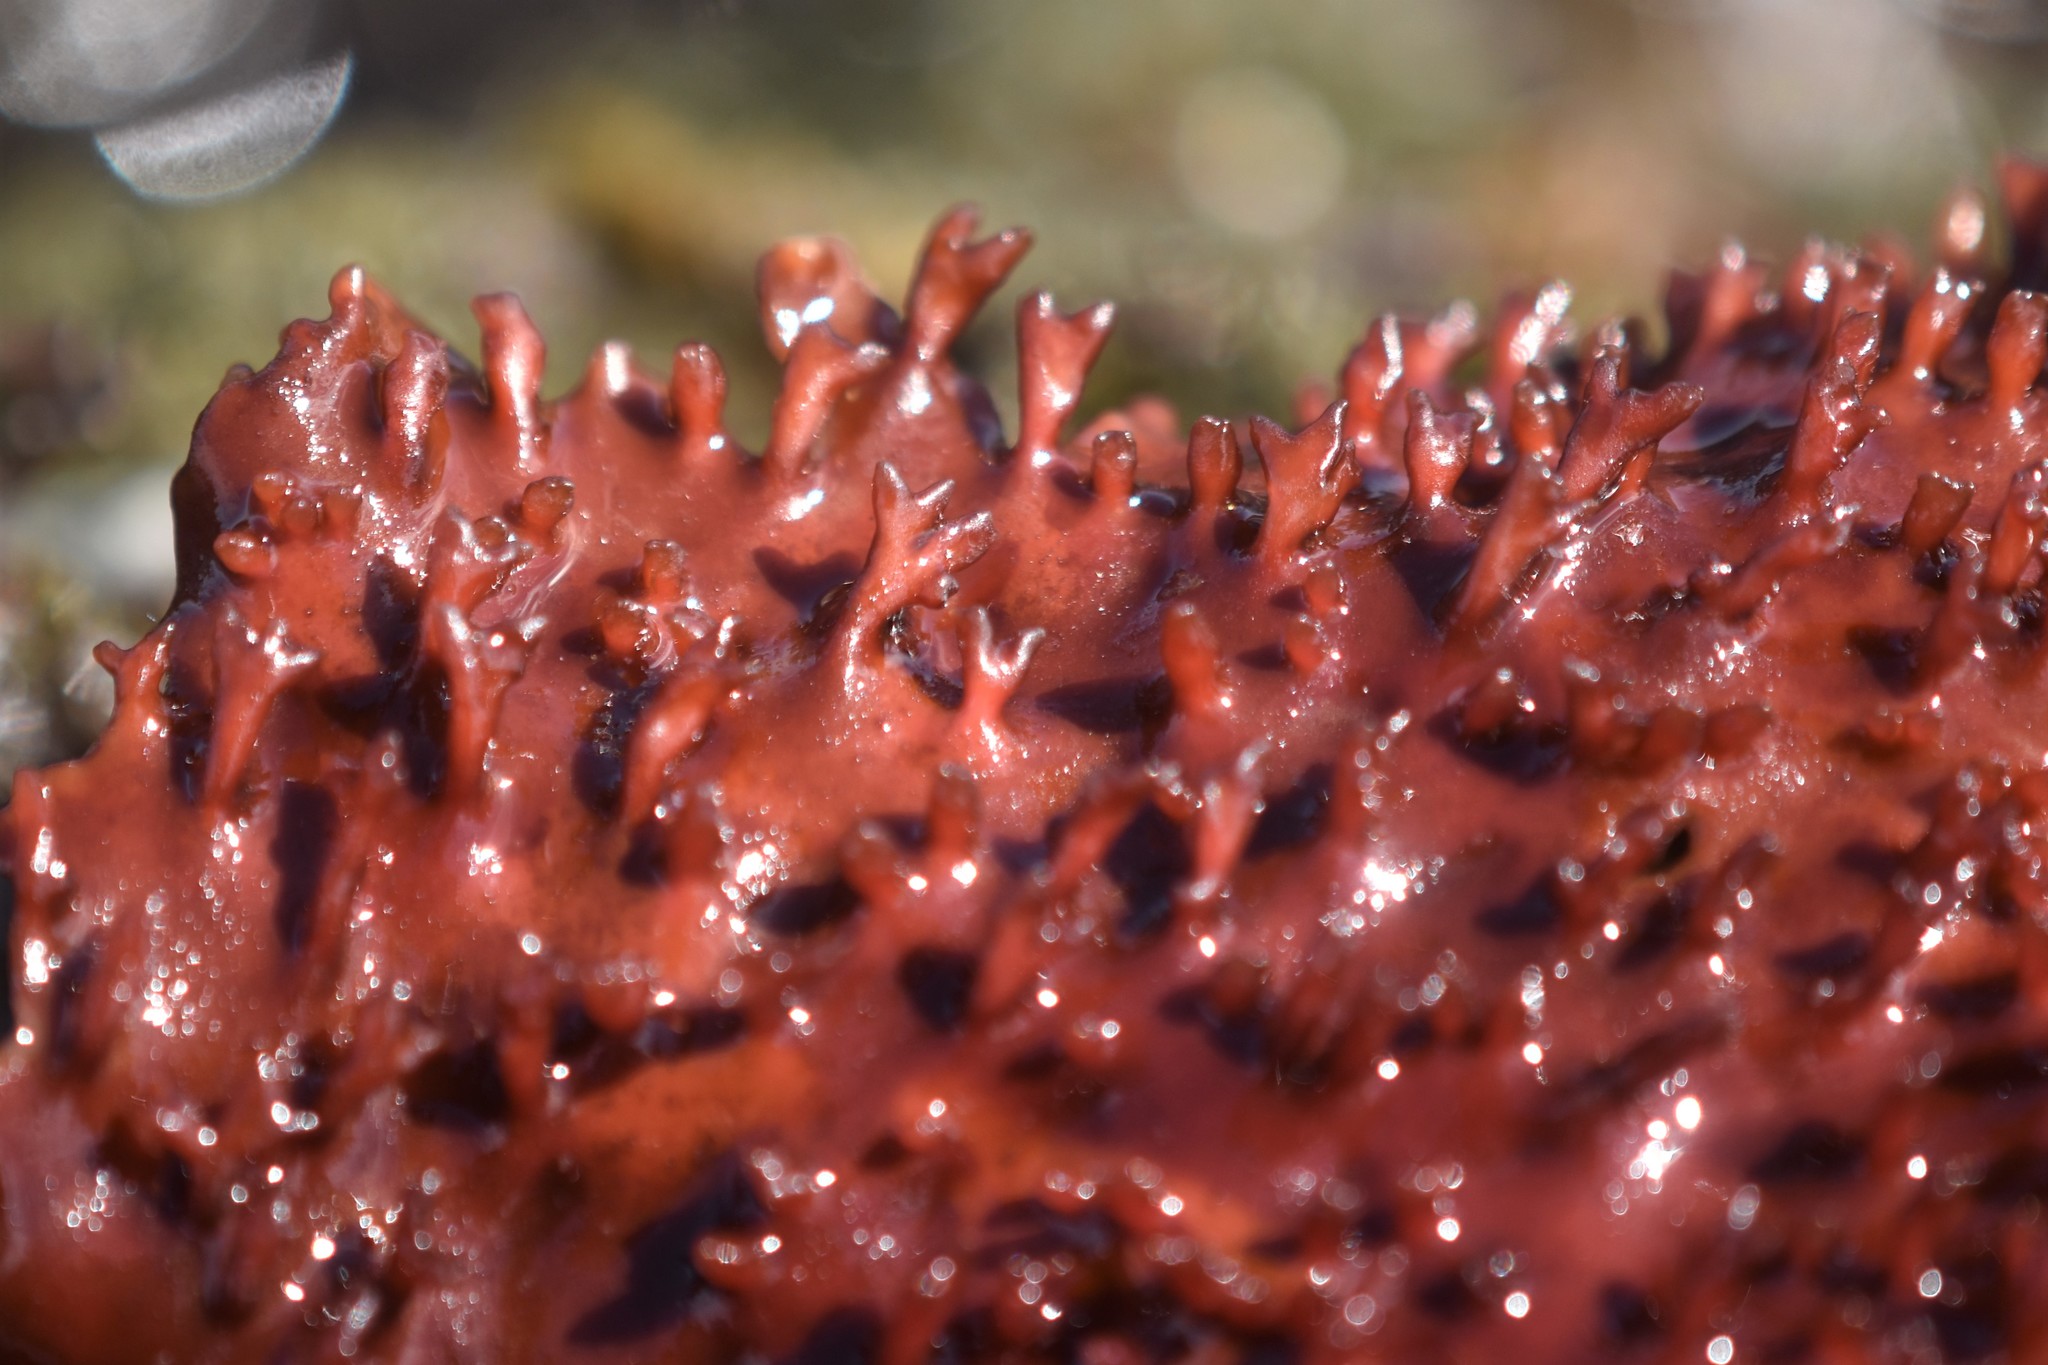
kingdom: Plantae
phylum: Rhodophyta
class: Florideophyceae
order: Gigartinales
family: Gigartinaceae
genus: Chondracanthus
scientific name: Chondracanthus exasperatus
